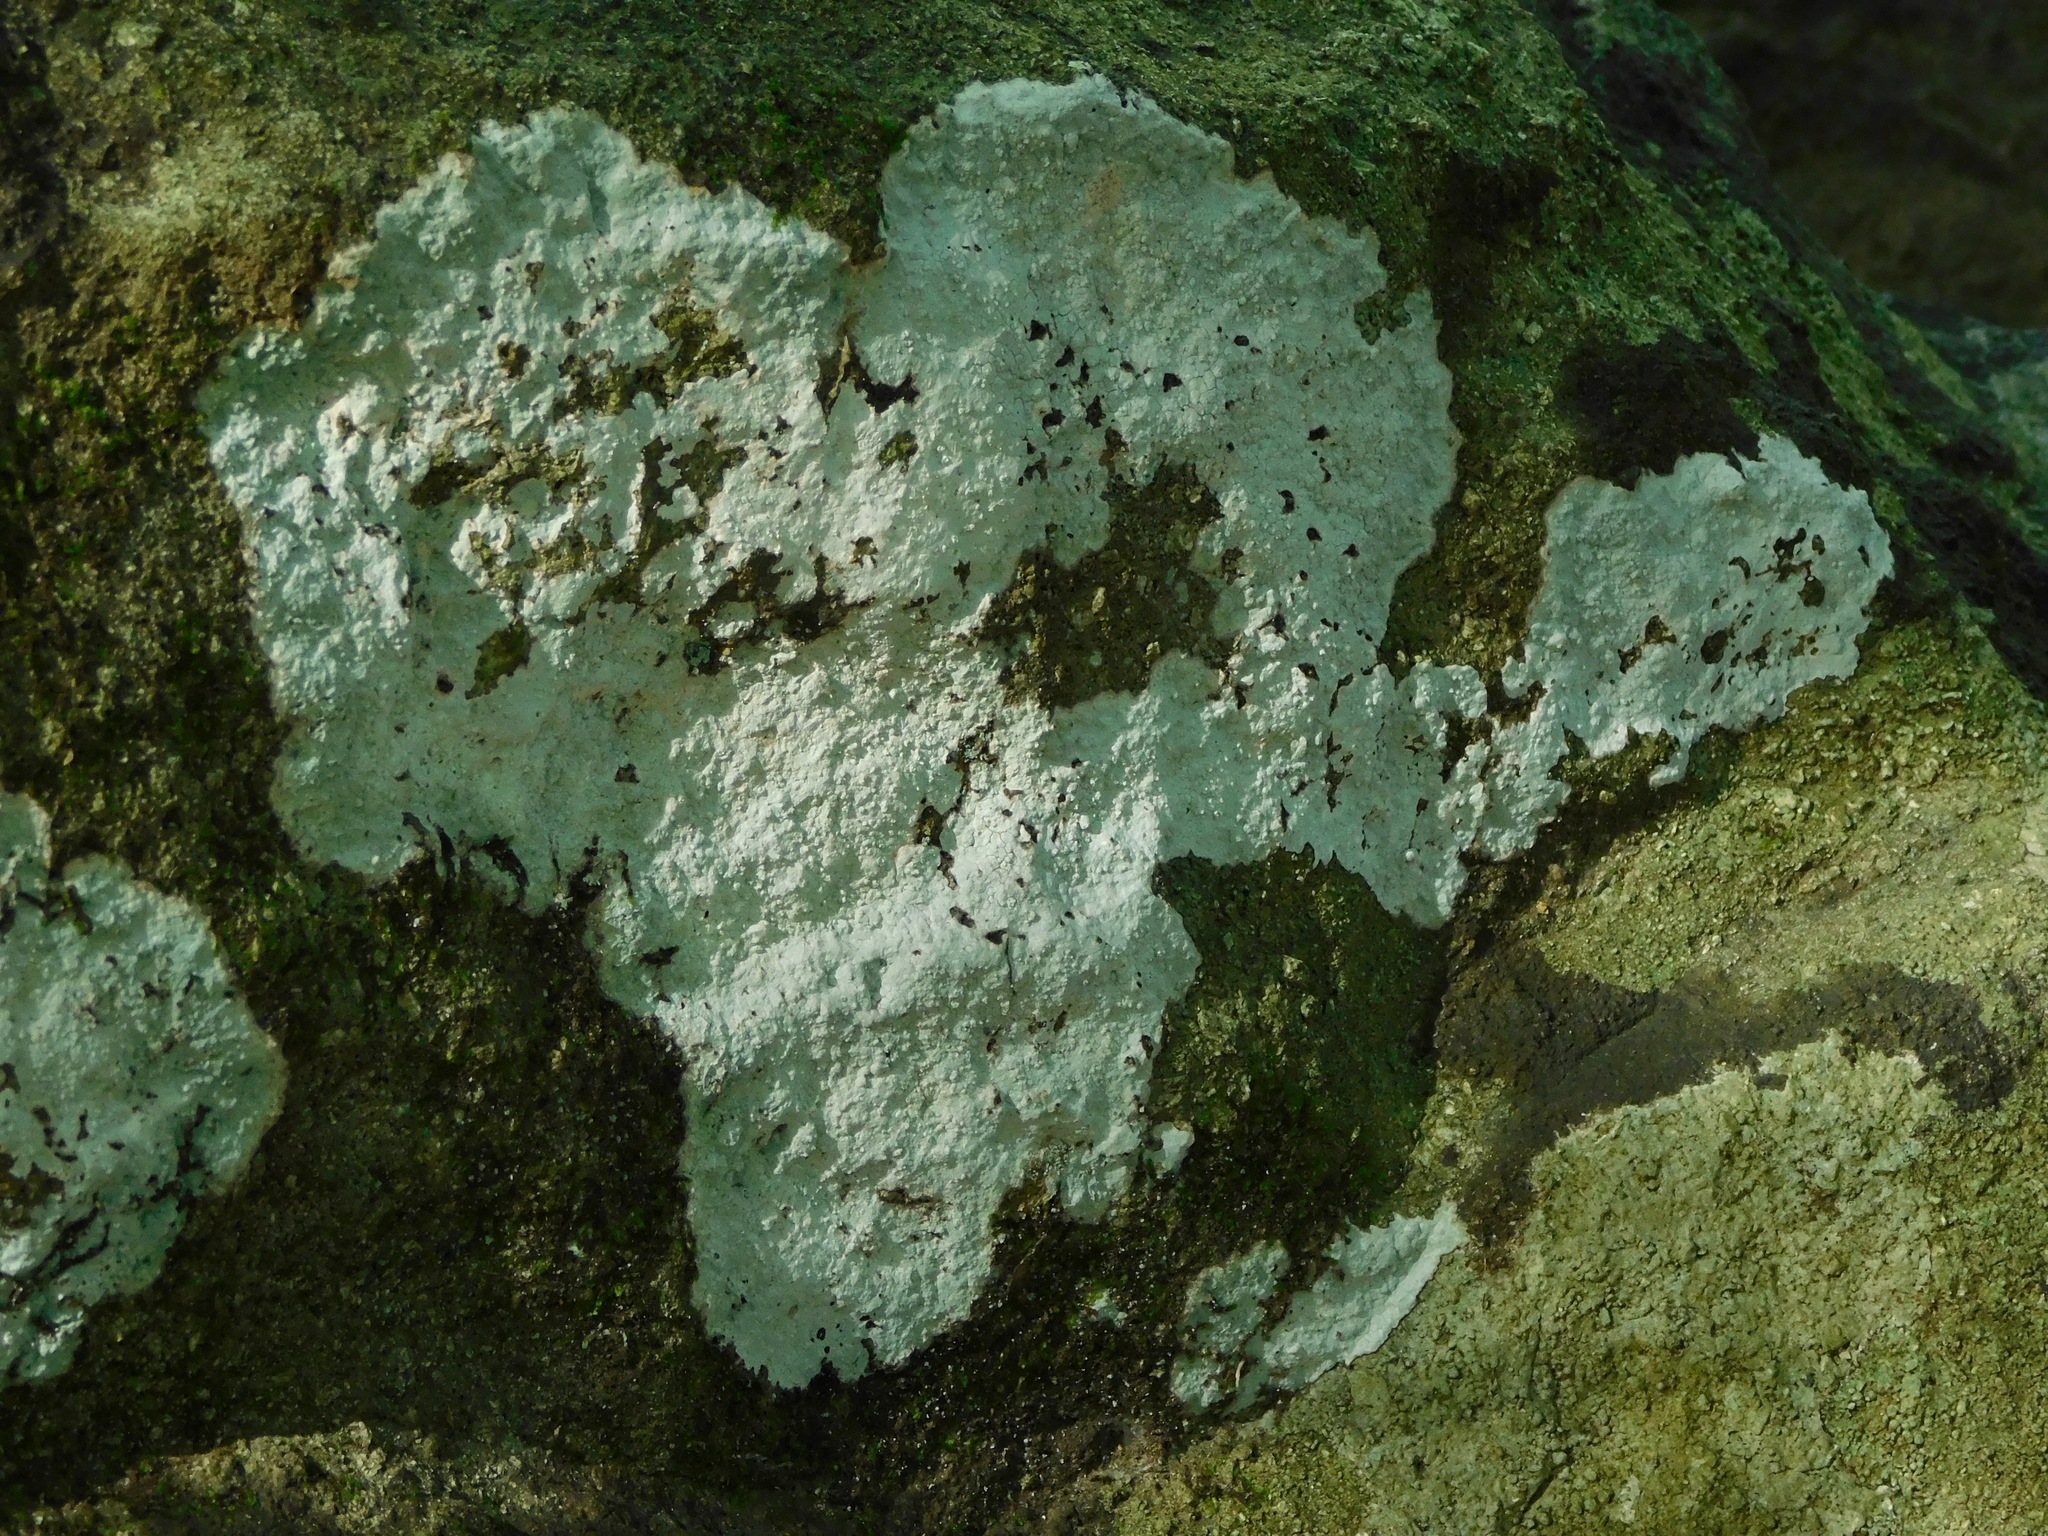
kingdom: Fungi
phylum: Ascomycota
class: Lecanoromycetes
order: Ostropales
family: Phlyctidaceae
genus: Phlyctis
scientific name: Phlyctis petraea
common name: Eggshell rock blaze
